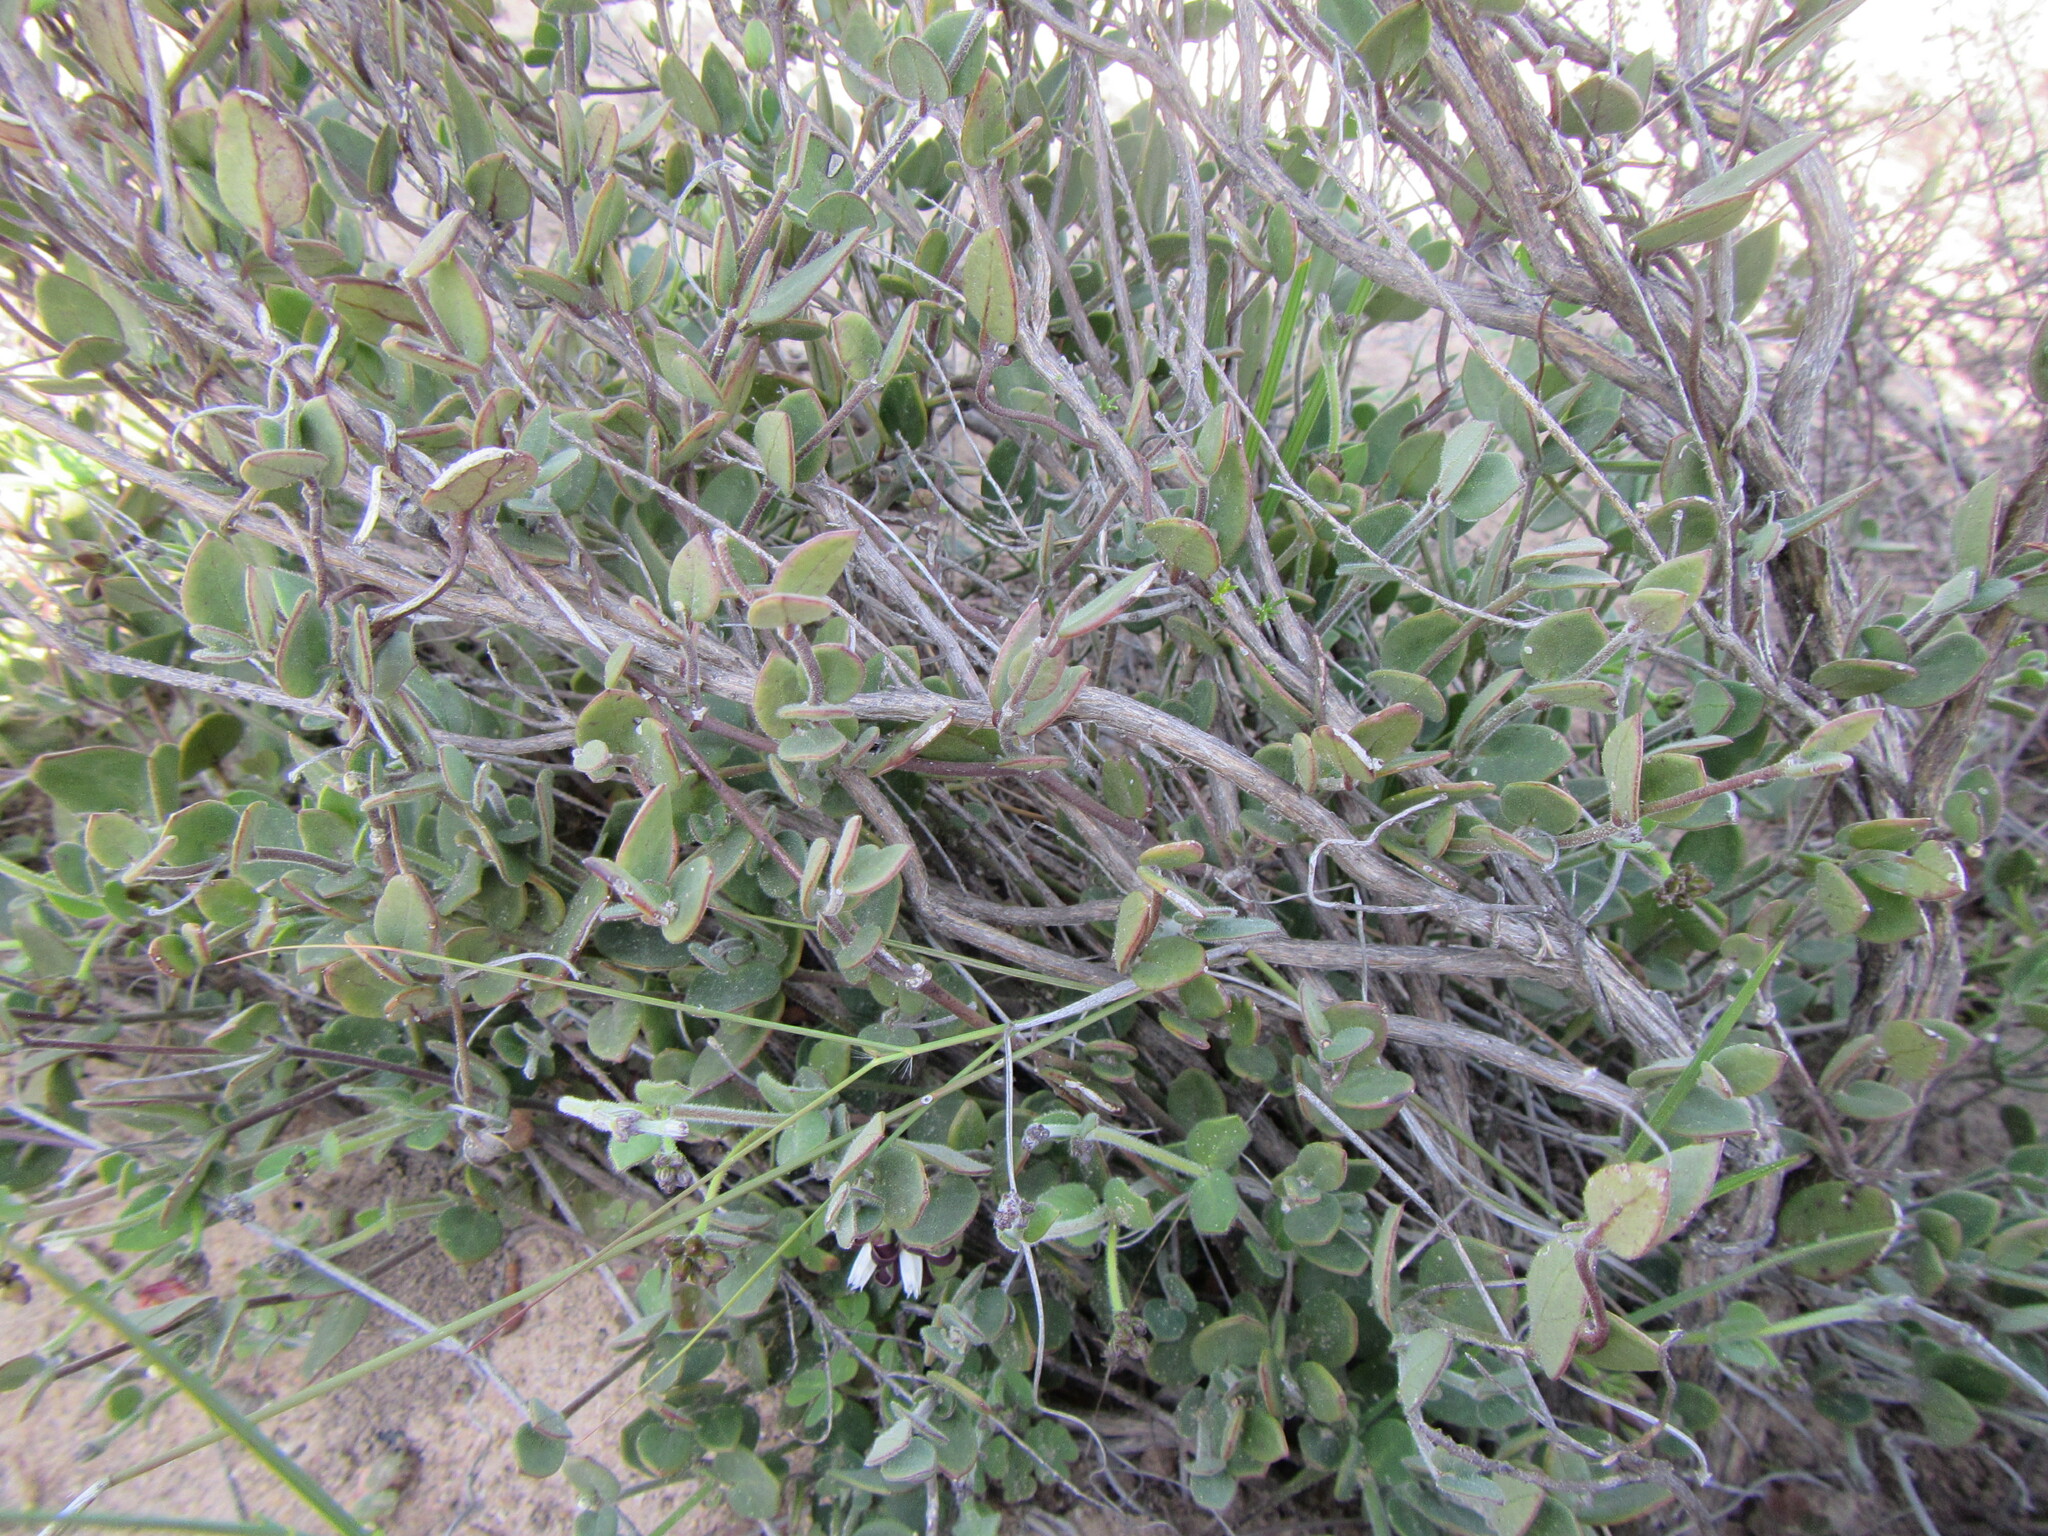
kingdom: Plantae
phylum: Tracheophyta
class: Magnoliopsida
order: Gentianales
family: Apocynaceae
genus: Cynanchum
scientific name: Cynanchum africanum
